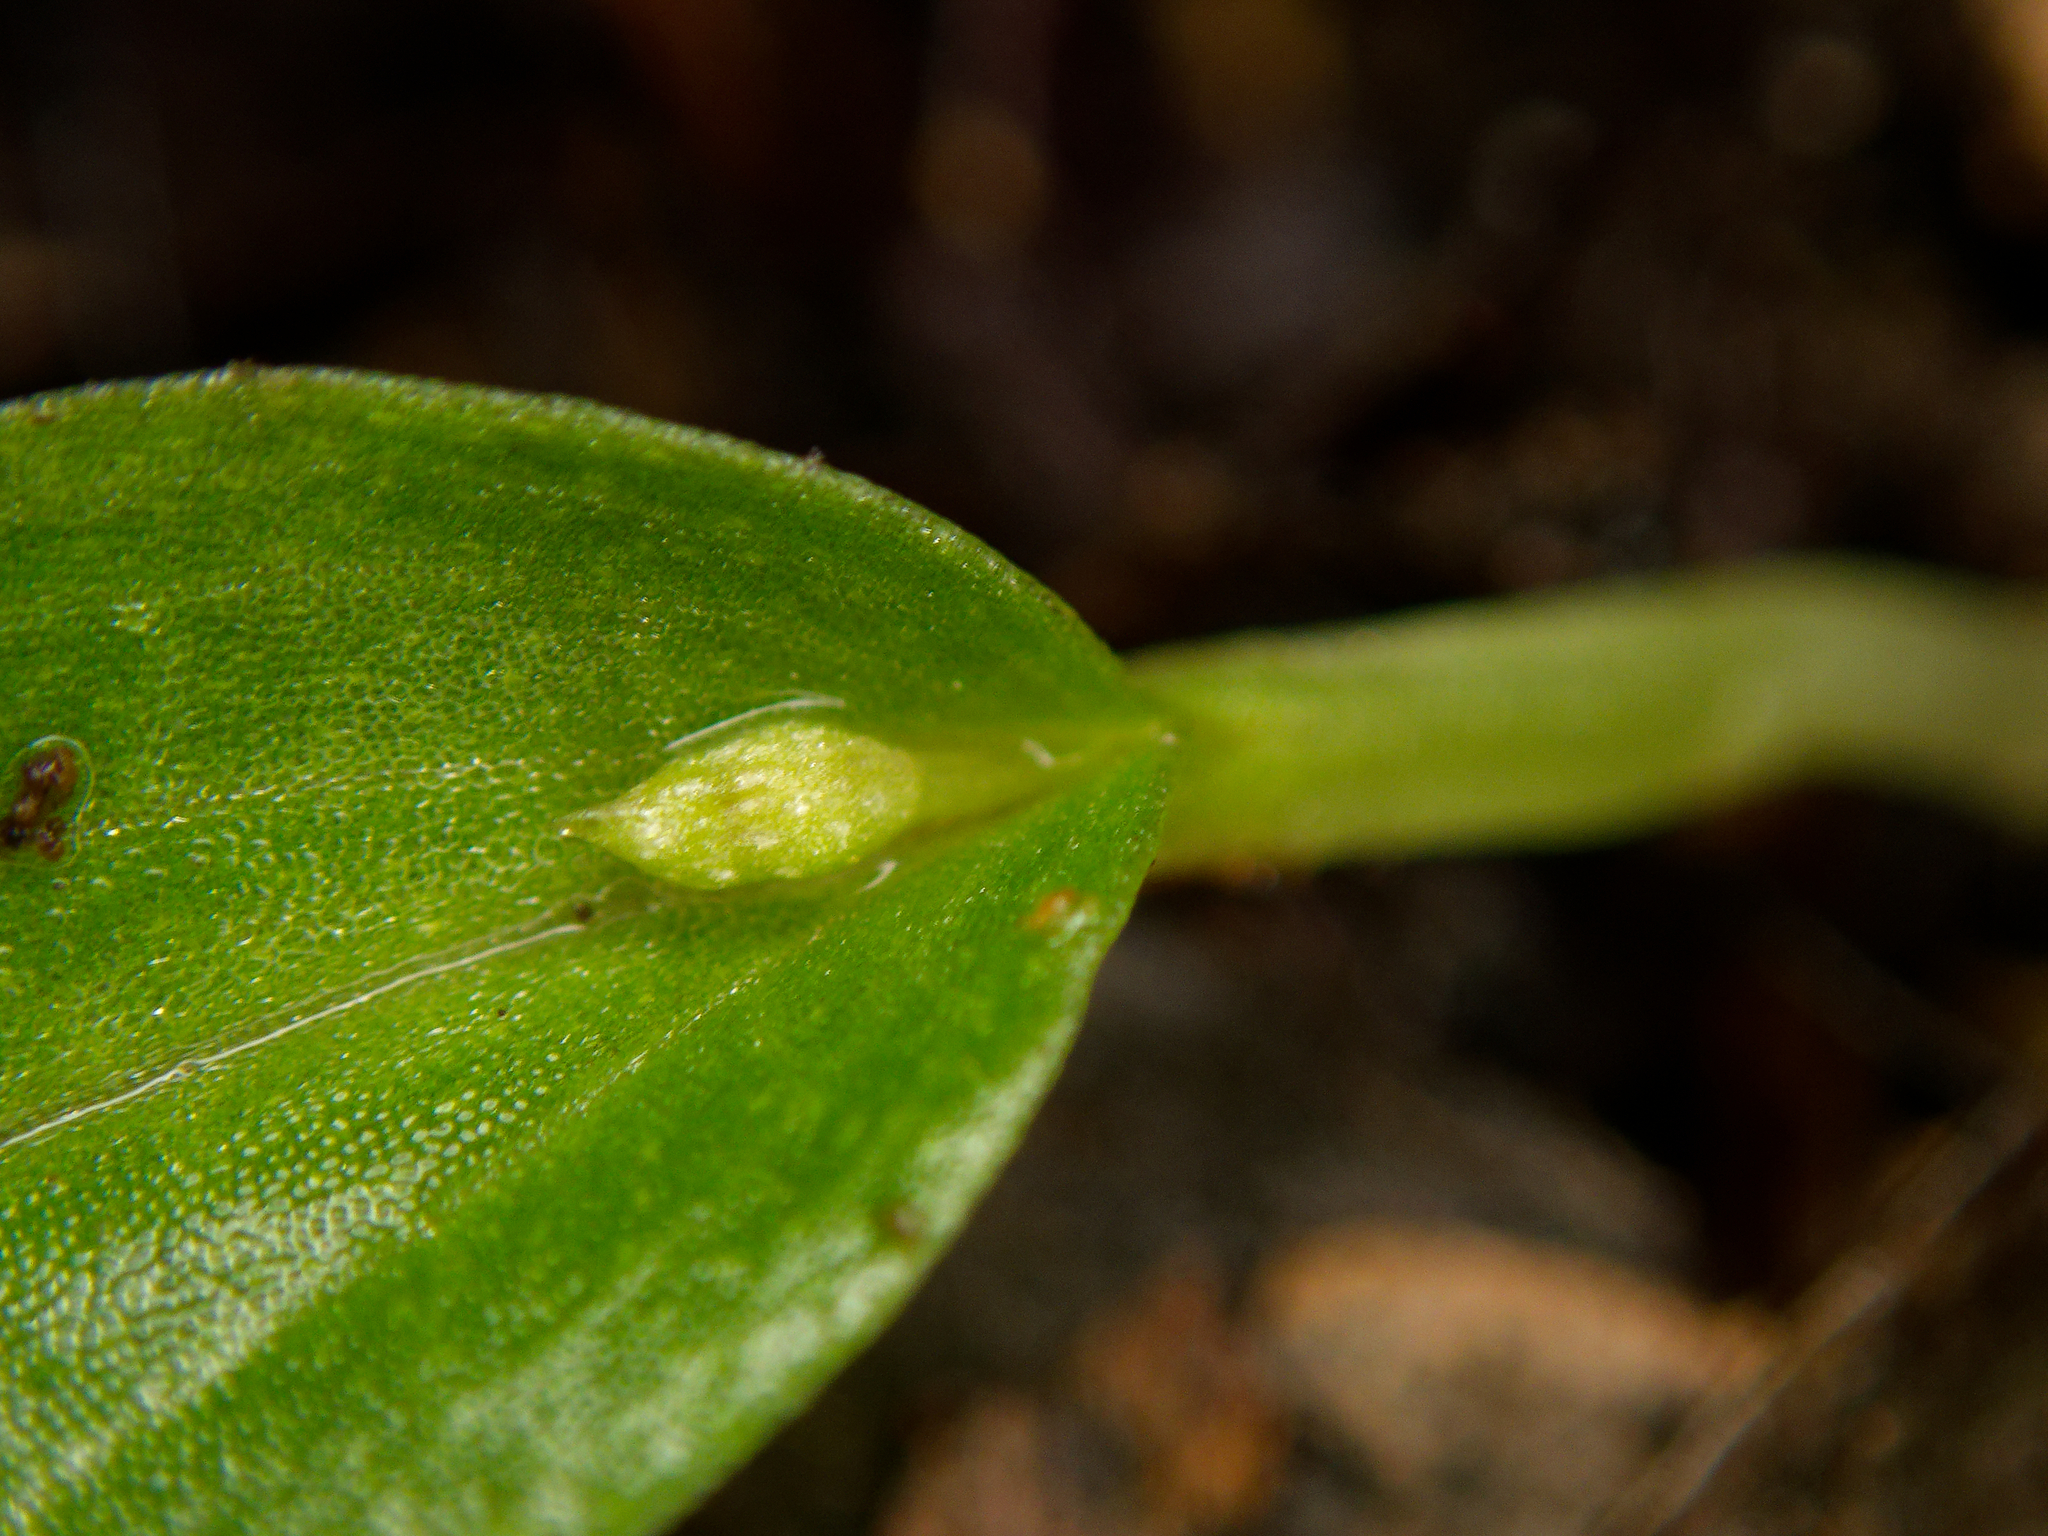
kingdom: Plantae
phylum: Tracheophyta
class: Liliopsida
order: Asparagales
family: Orchidaceae
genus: Cyrtostylis
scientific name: Cyrtostylis oblonga
